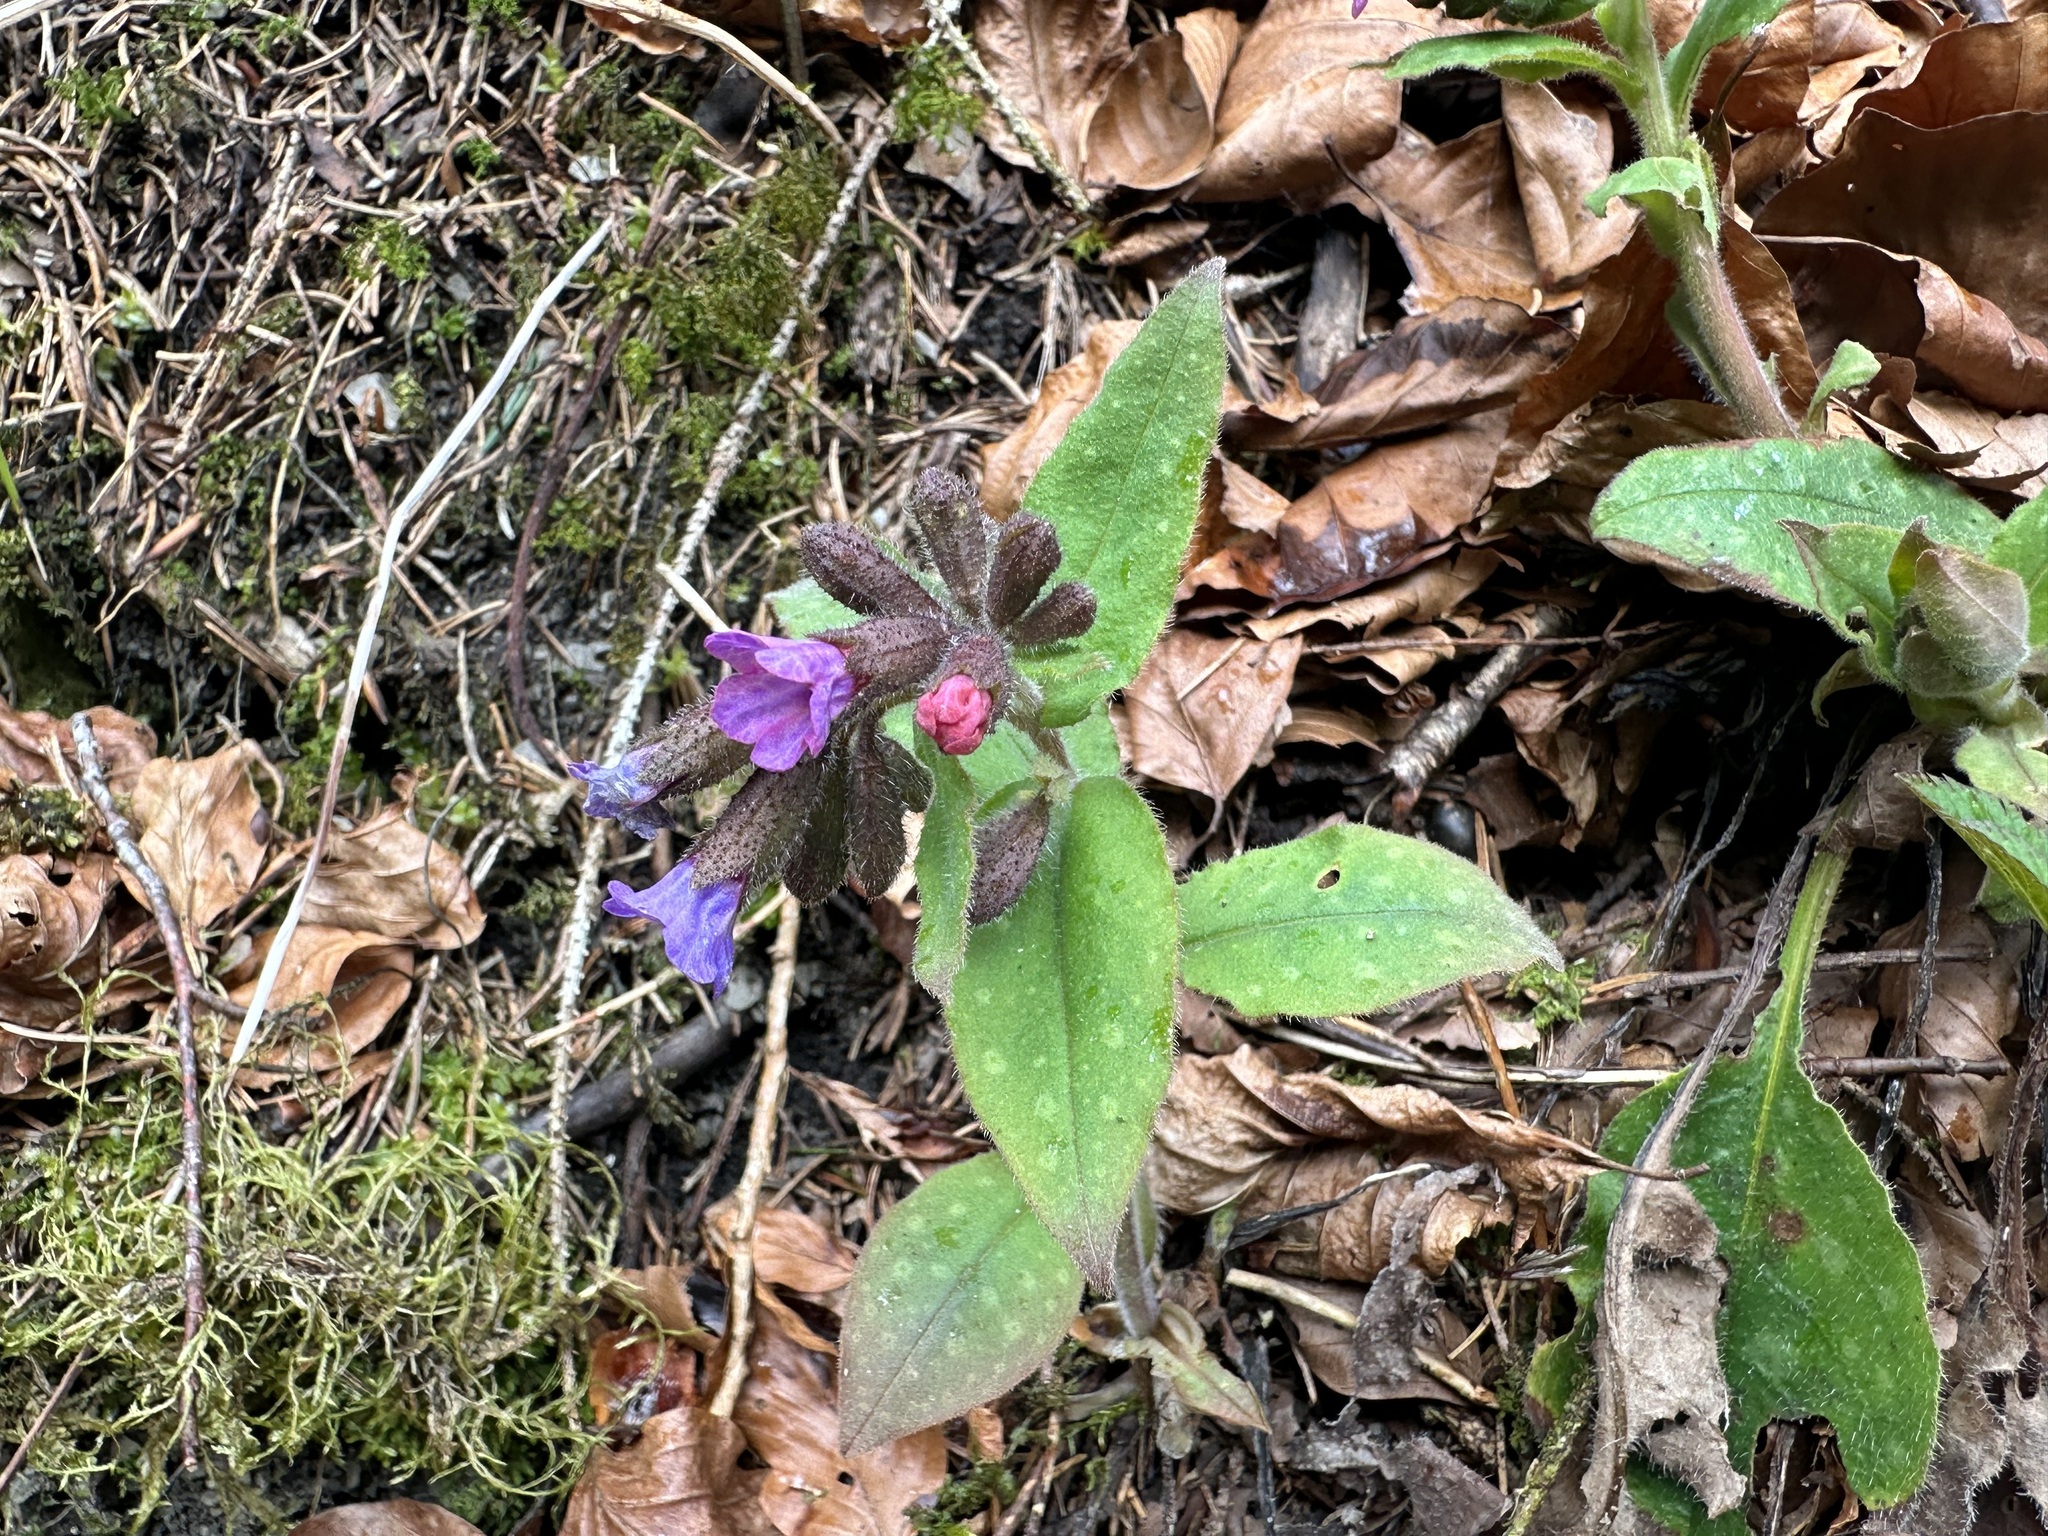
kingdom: Plantae
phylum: Tracheophyta
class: Magnoliopsida
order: Boraginales
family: Boraginaceae
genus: Pulmonaria
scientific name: Pulmonaria officinalis
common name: Lungwort
